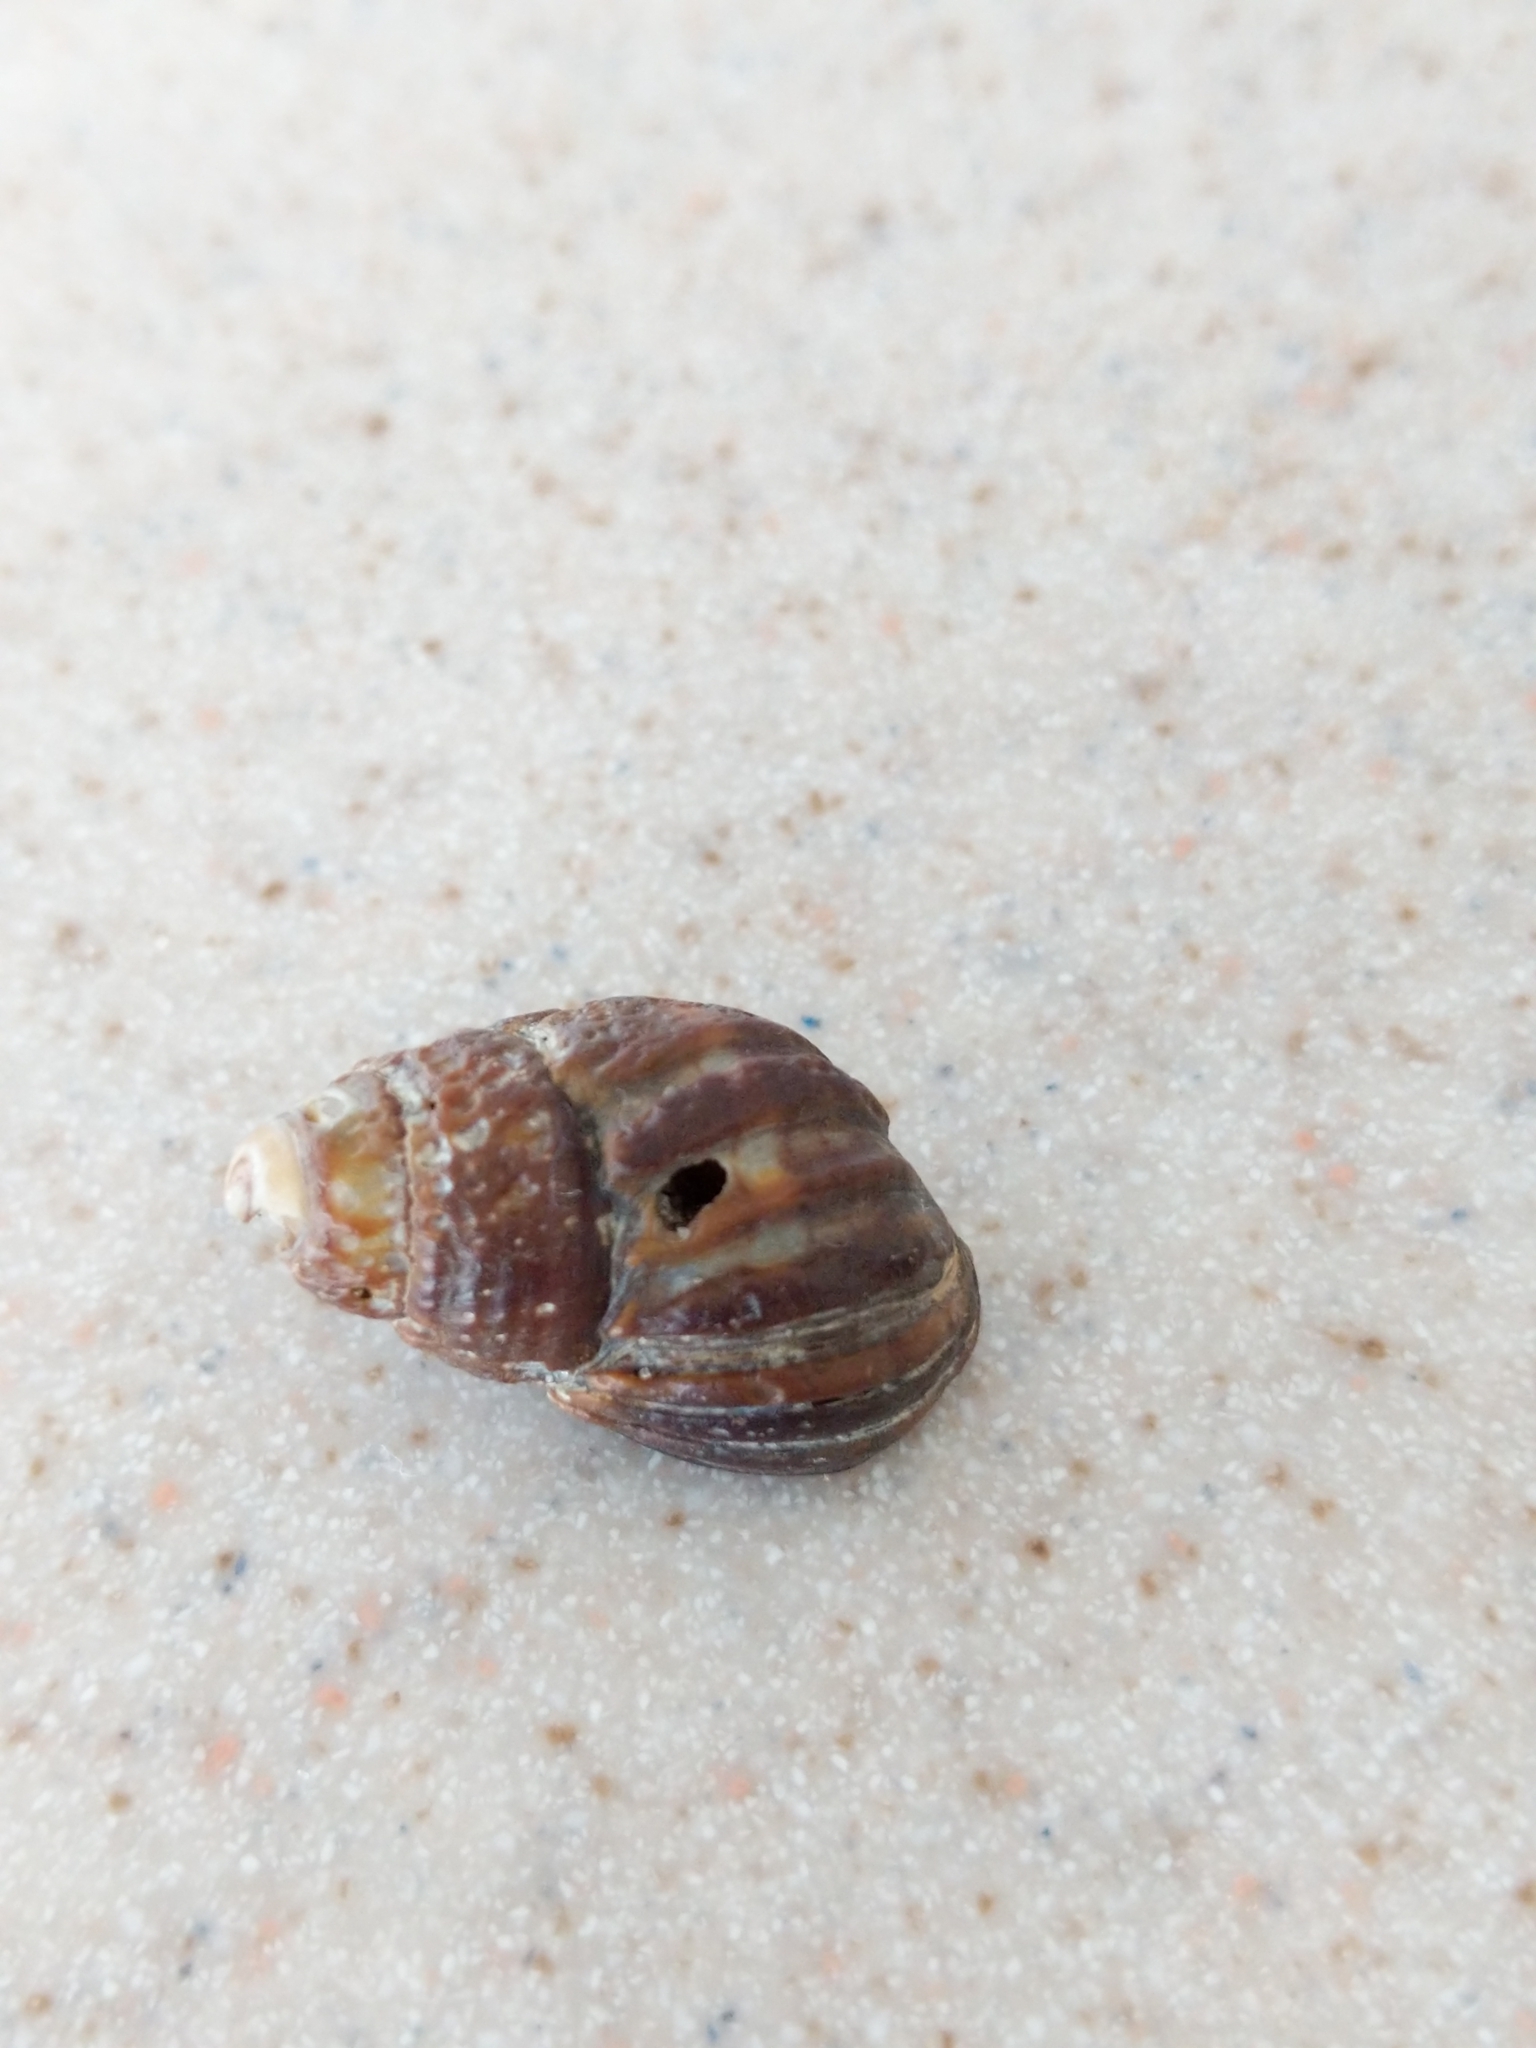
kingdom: Animalia
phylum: Mollusca
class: Gastropoda
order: Neogastropoda
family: Nassariidae
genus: Ilyanassa
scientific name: Ilyanassa obsoleta
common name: Eastern mudsnail
